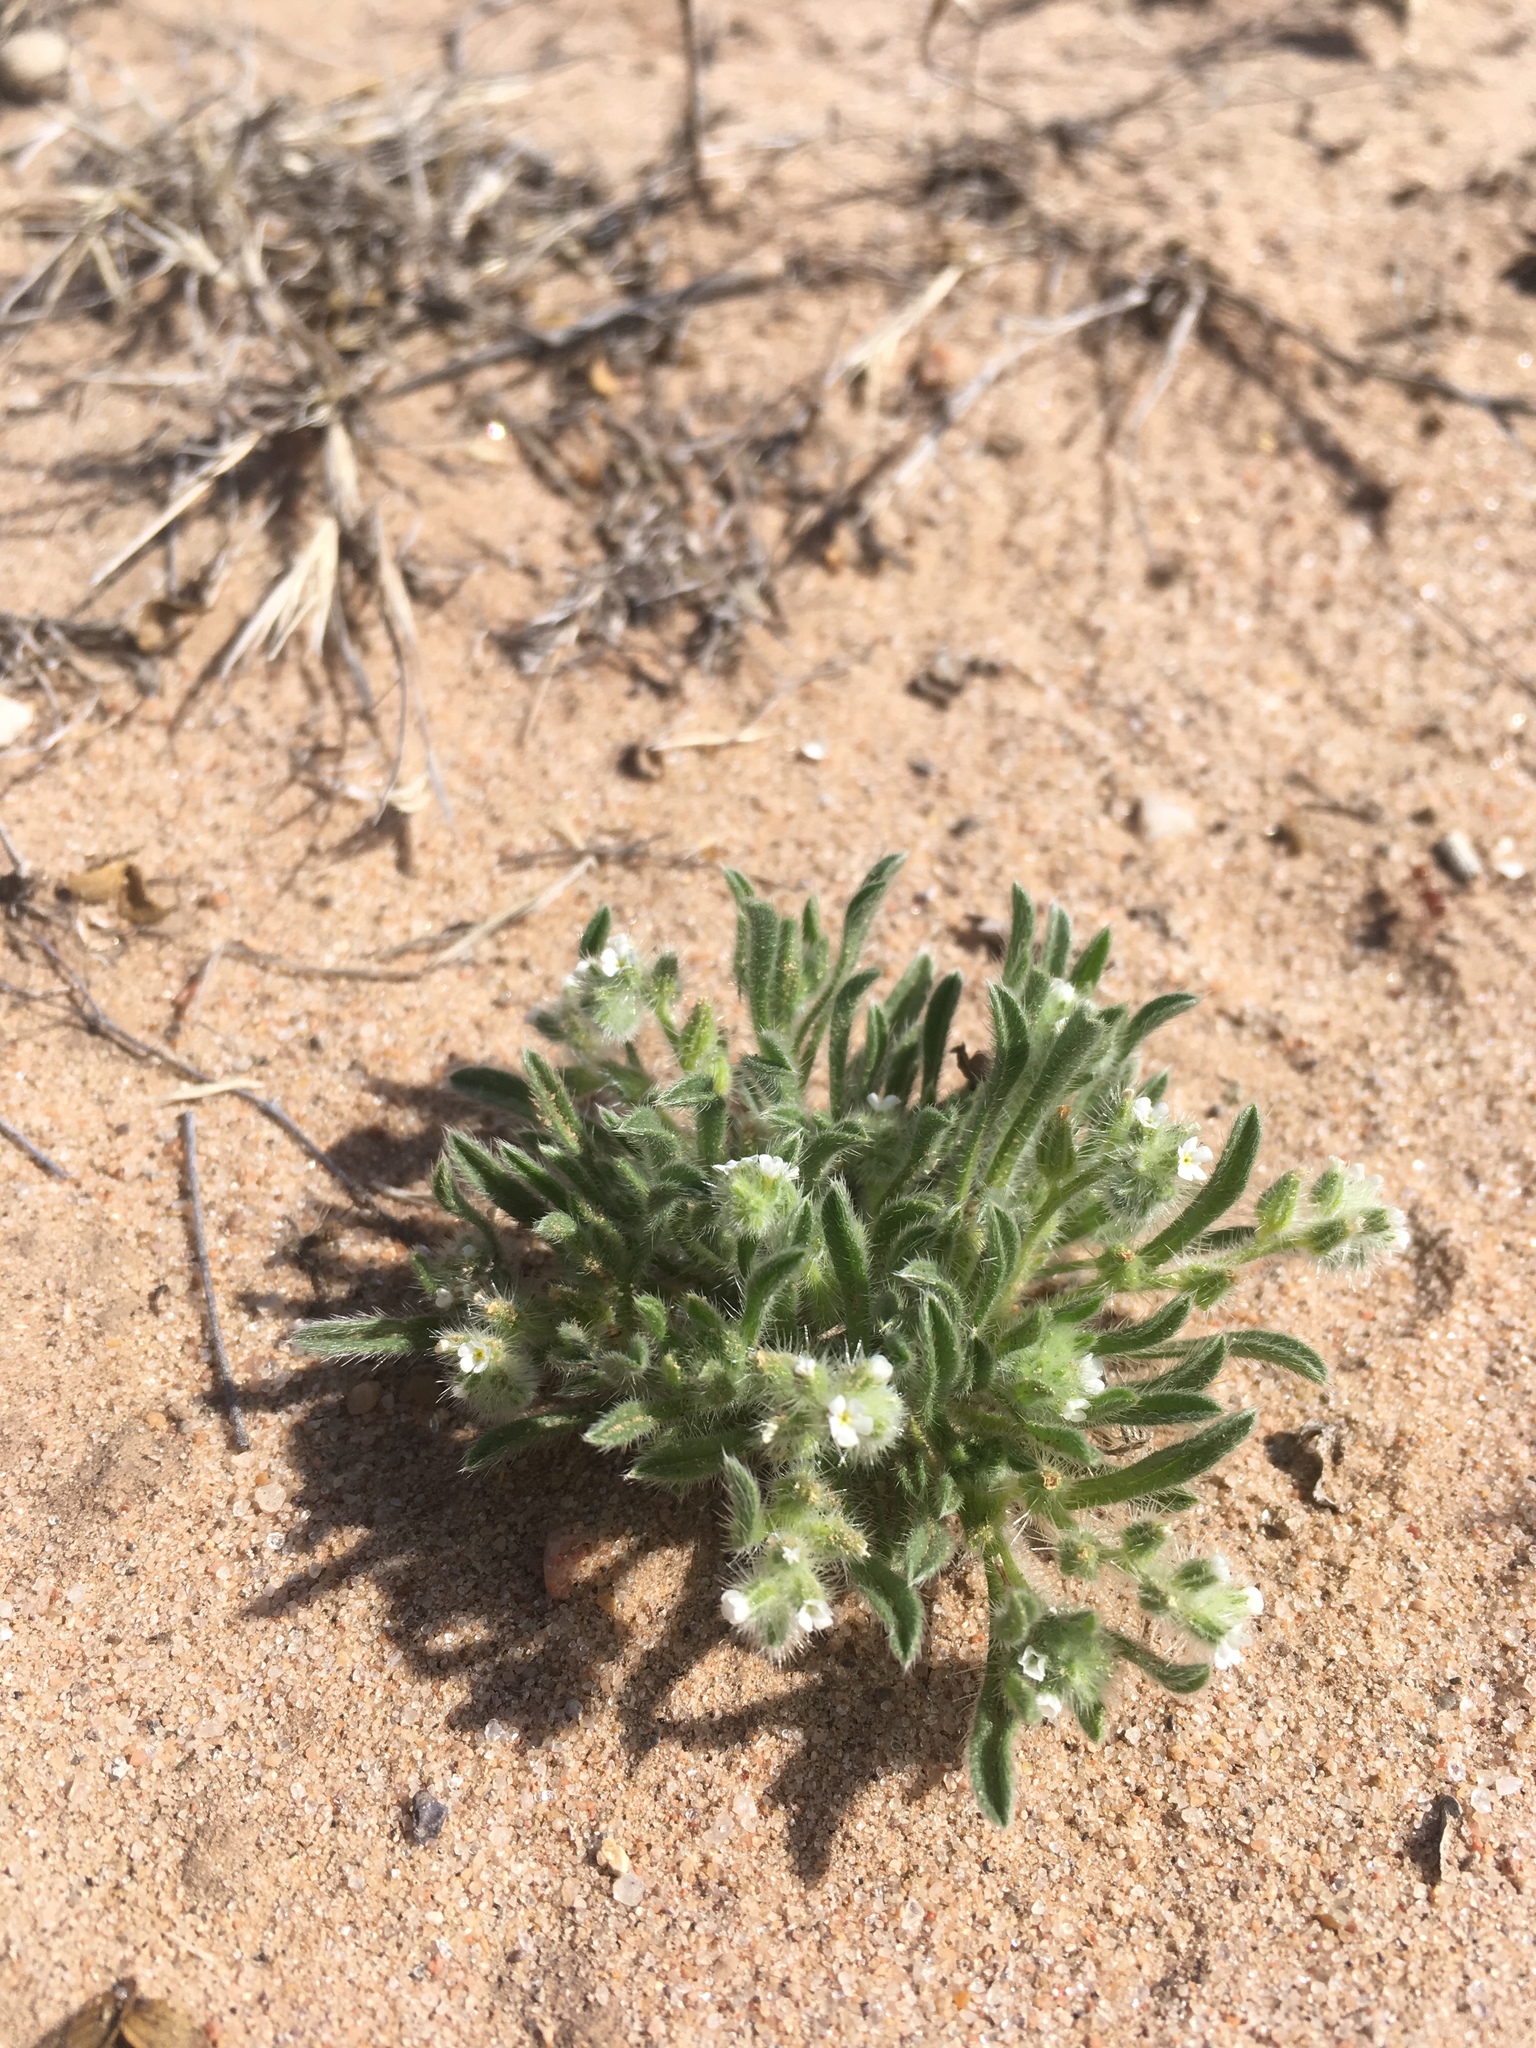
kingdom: Plantae
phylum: Tracheophyta
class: Magnoliopsida
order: Boraginales
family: Boraginaceae
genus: Cryptantha
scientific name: Cryptantha crassisepala
